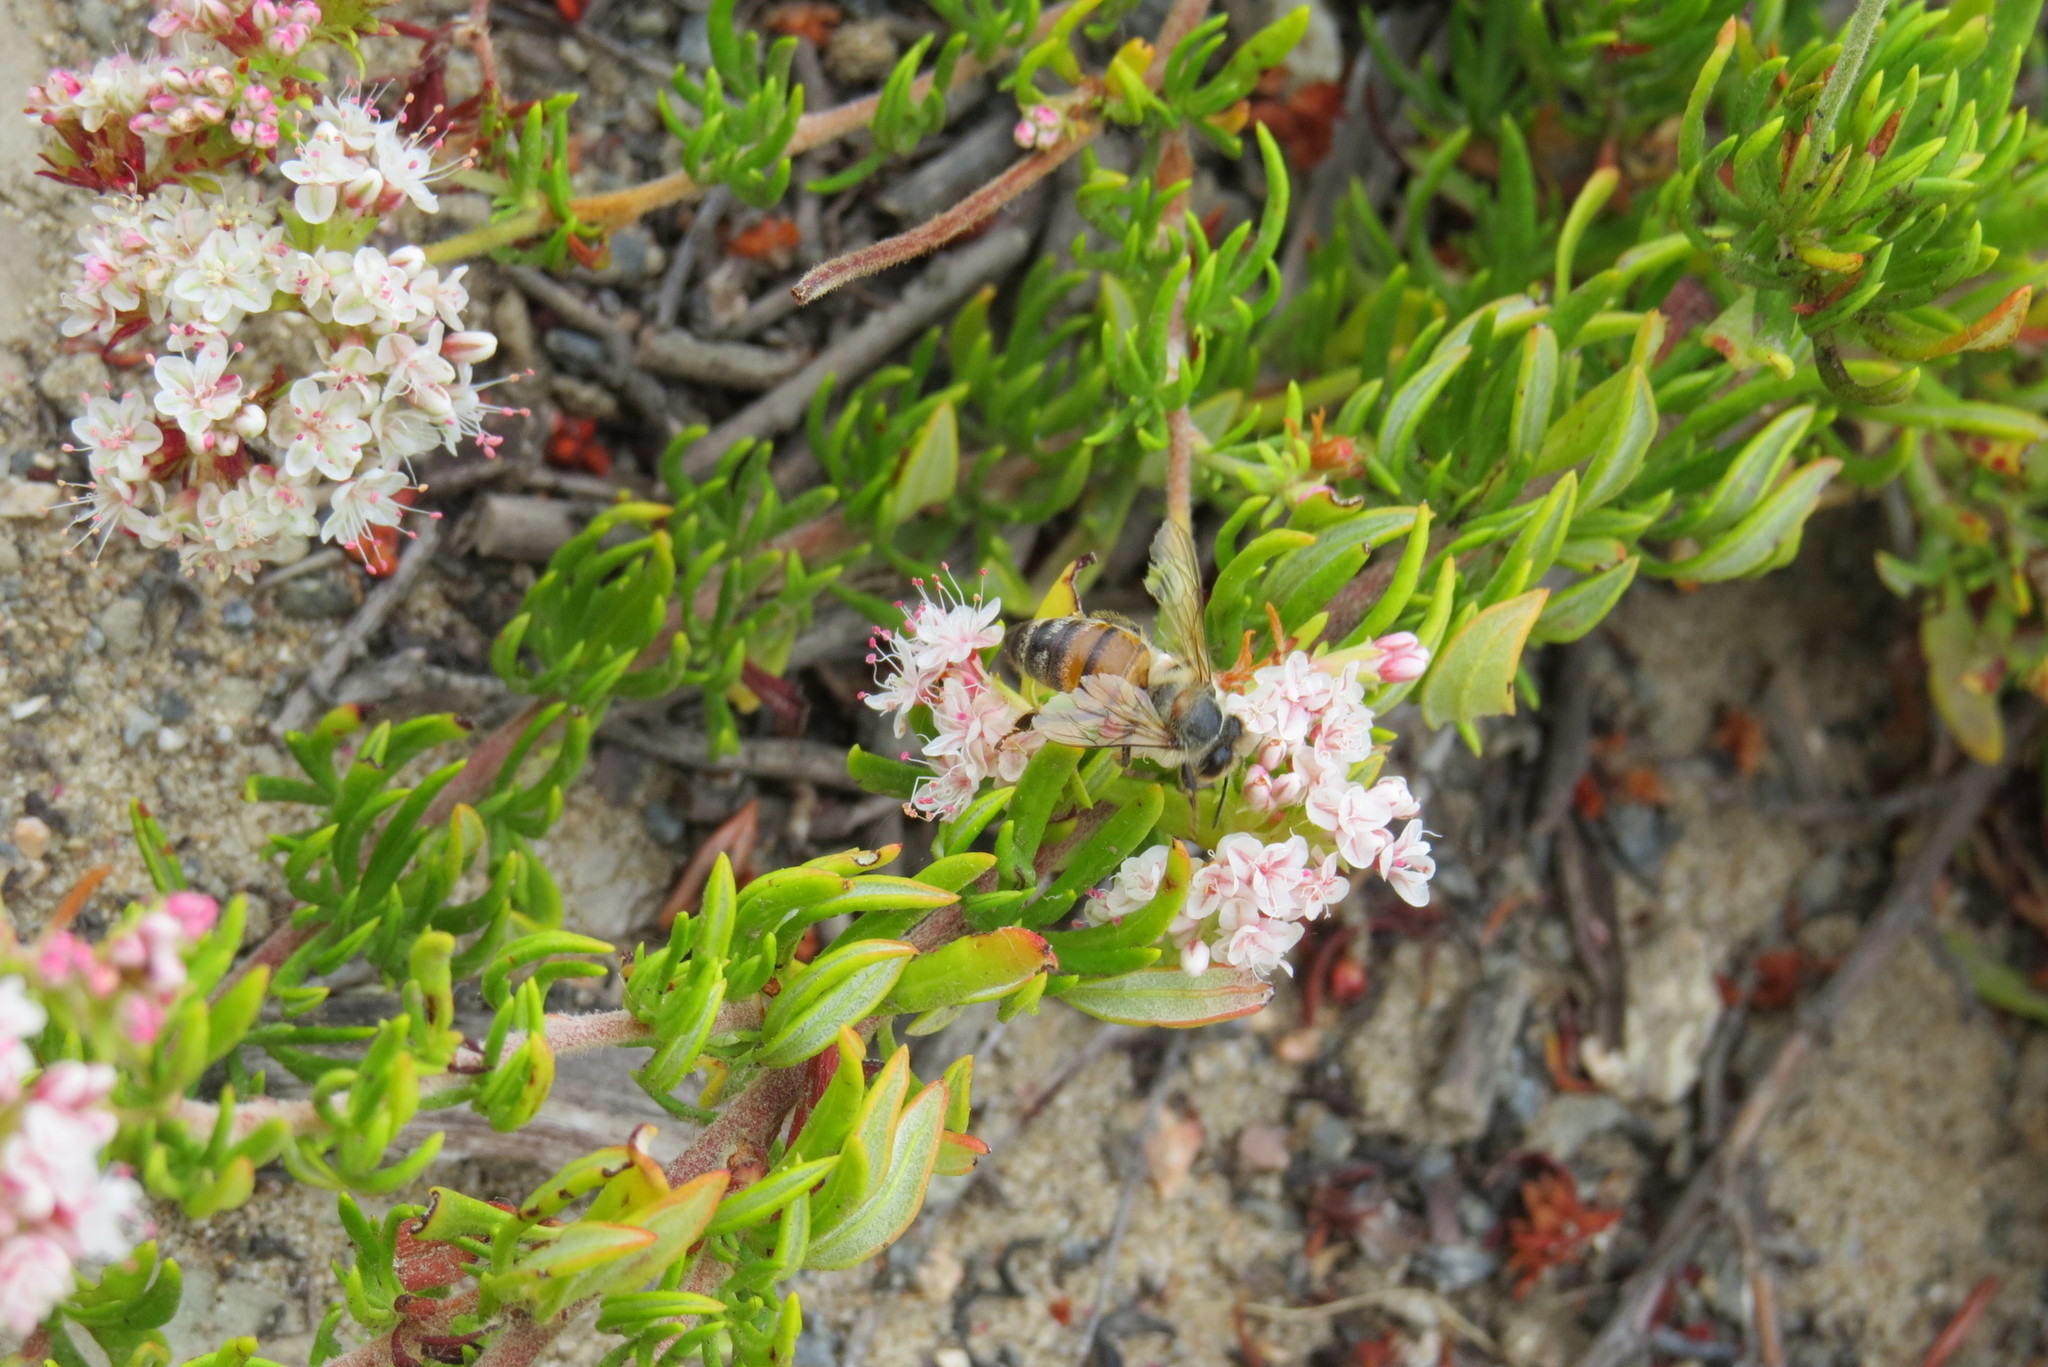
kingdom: Animalia
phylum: Arthropoda
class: Insecta
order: Hymenoptera
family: Apidae
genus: Apis
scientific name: Apis mellifera
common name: Honey bee
